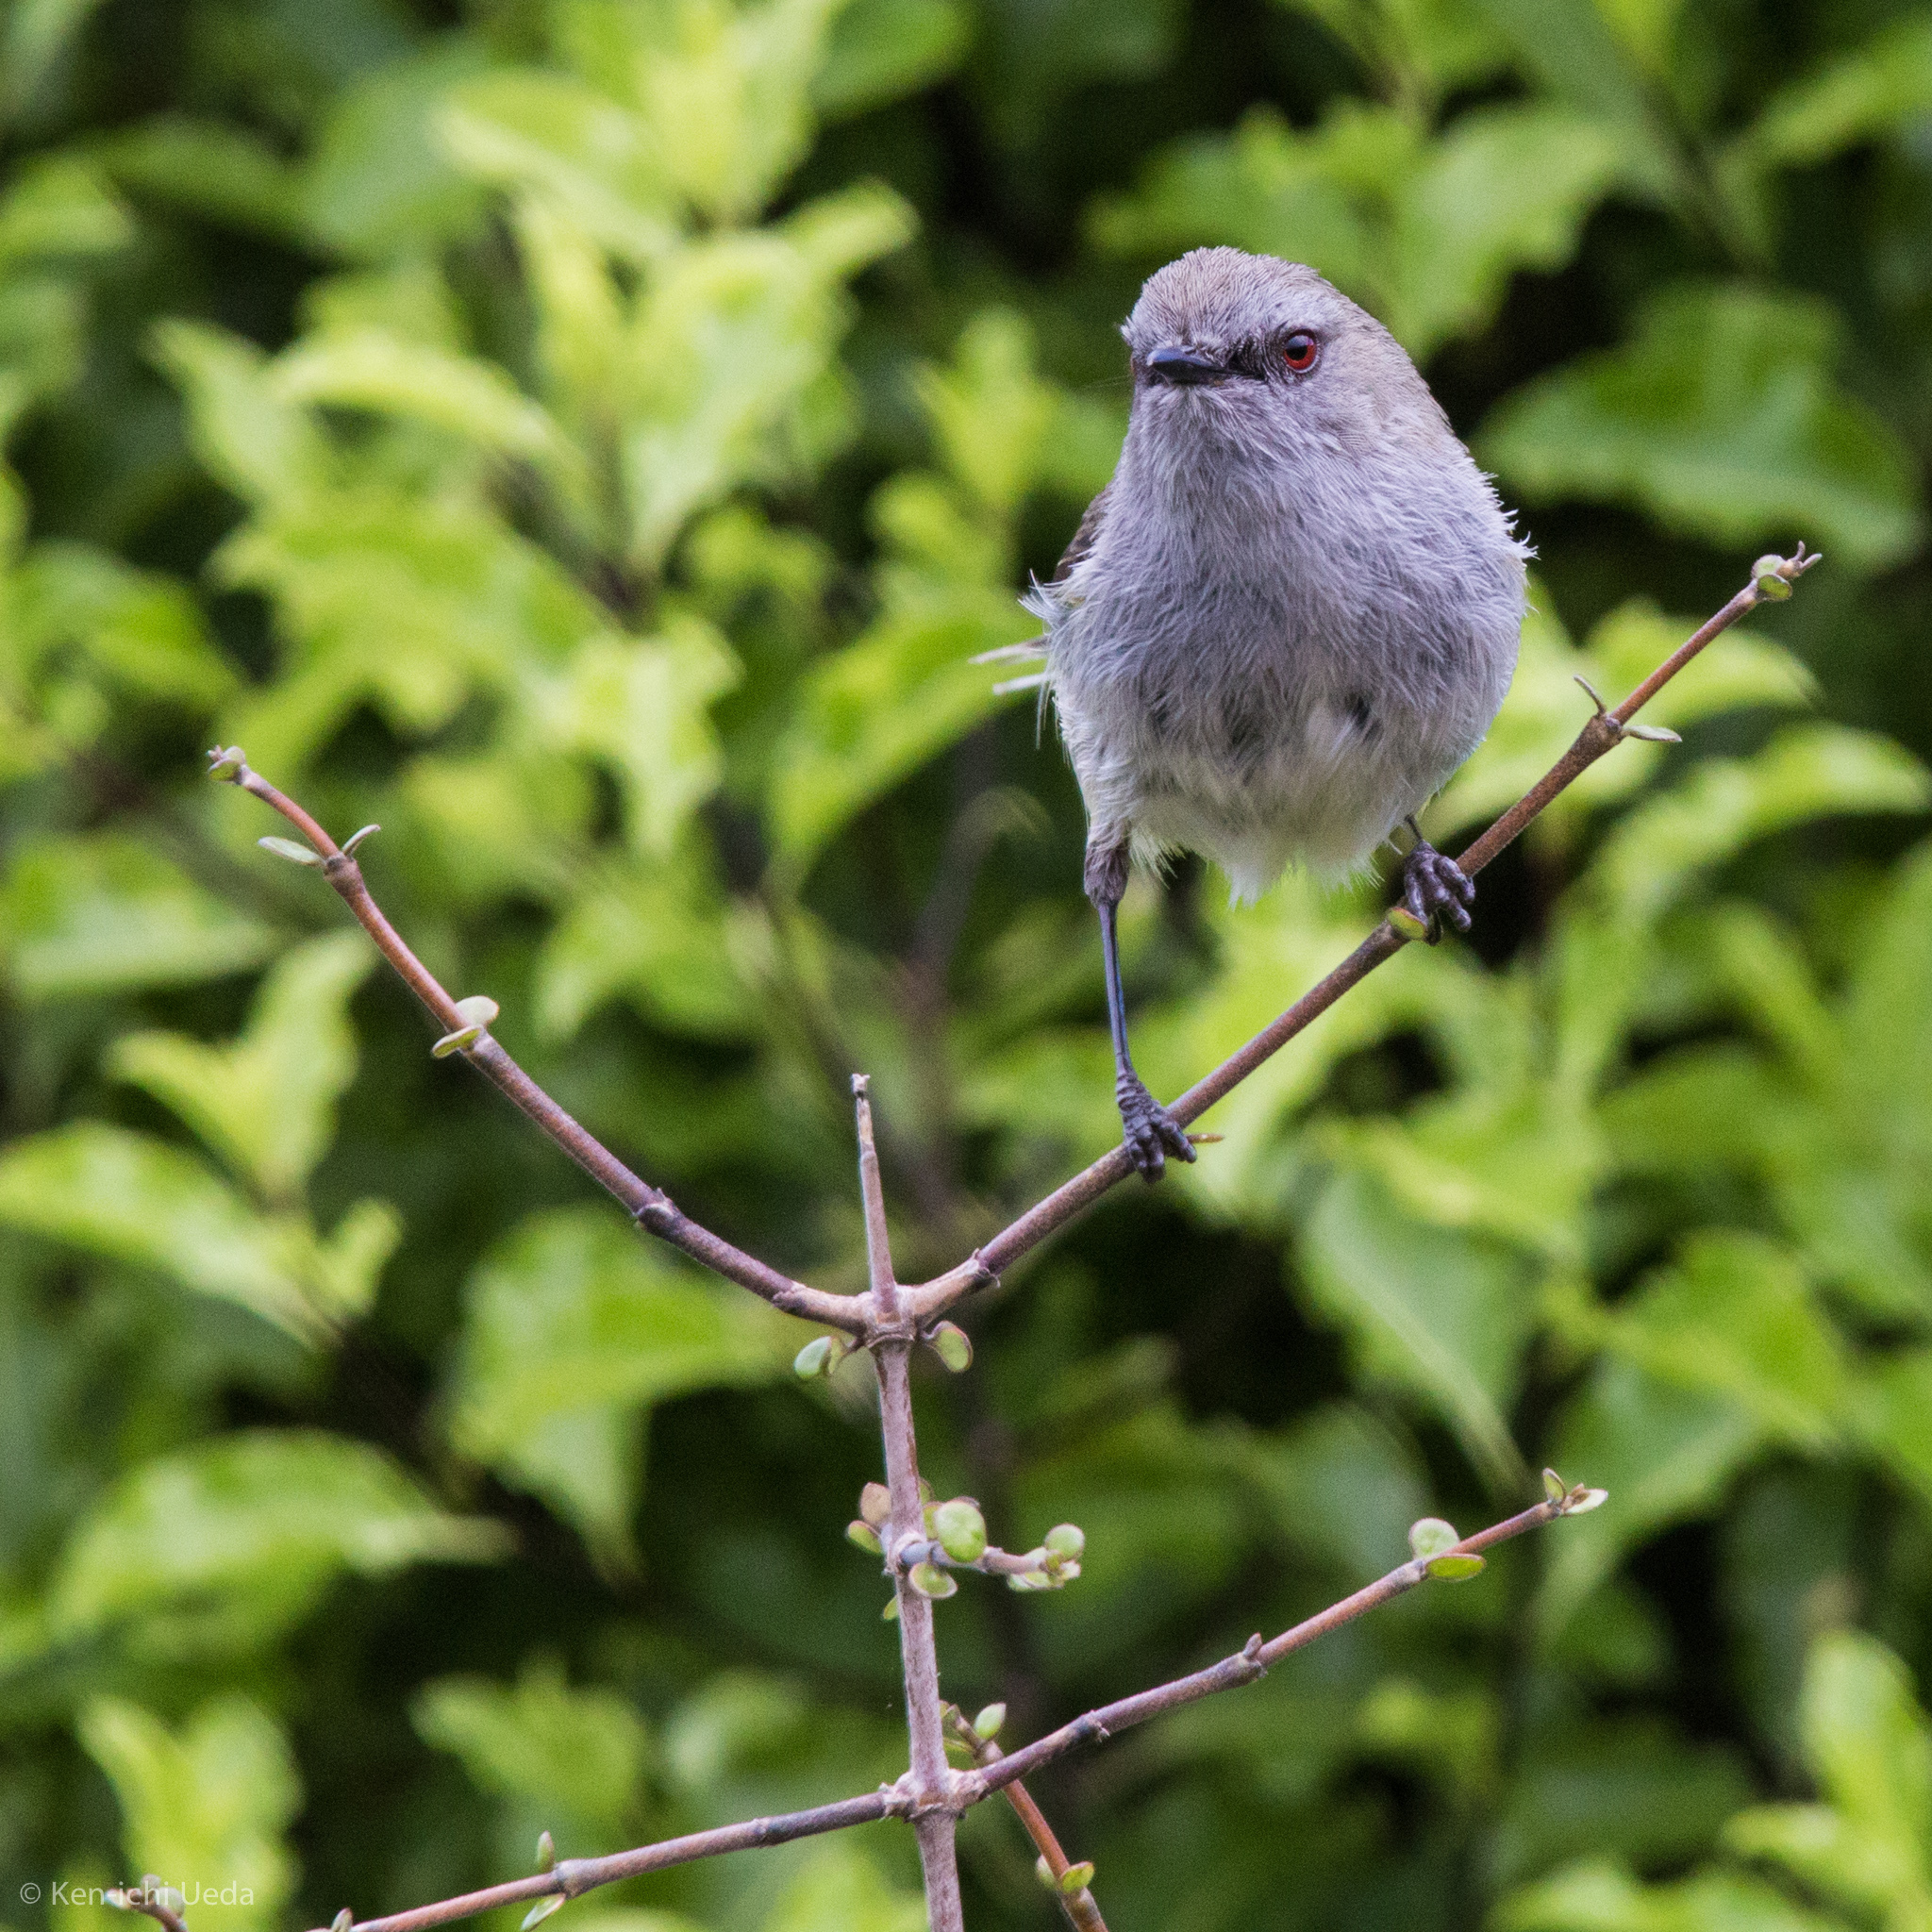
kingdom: Animalia
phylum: Chordata
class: Aves
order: Passeriformes
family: Acanthizidae
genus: Gerygone
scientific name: Gerygone igata
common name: Grey gerygone
